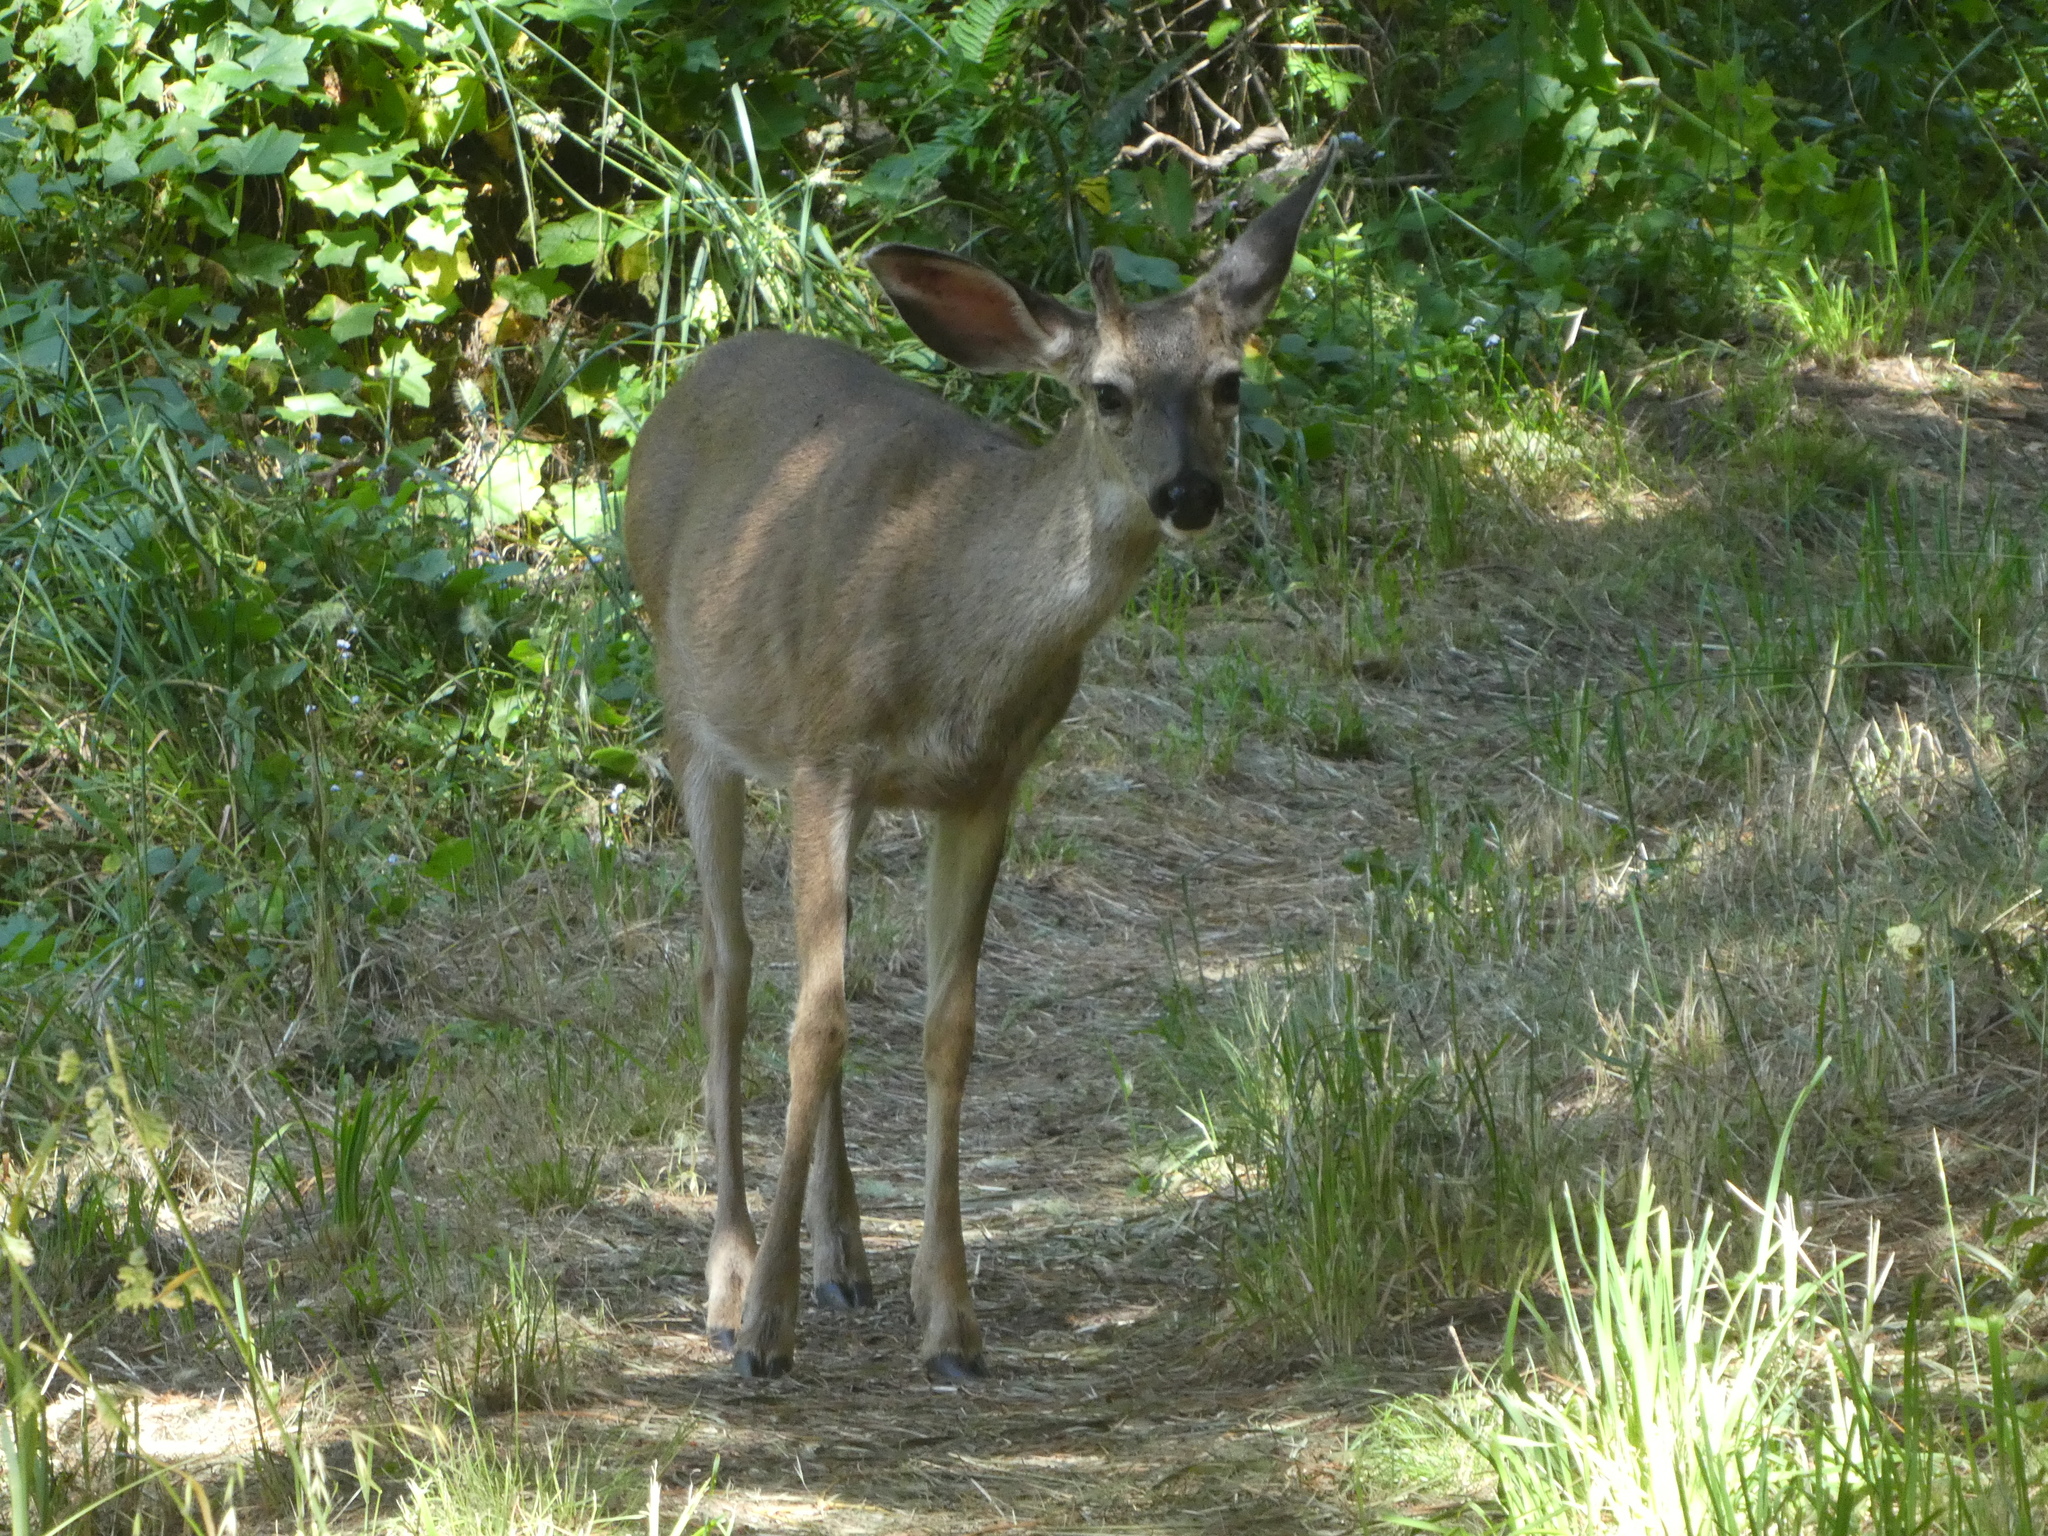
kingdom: Animalia
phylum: Chordata
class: Mammalia
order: Artiodactyla
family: Cervidae
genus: Odocoileus
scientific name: Odocoileus hemionus
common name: Mule deer
